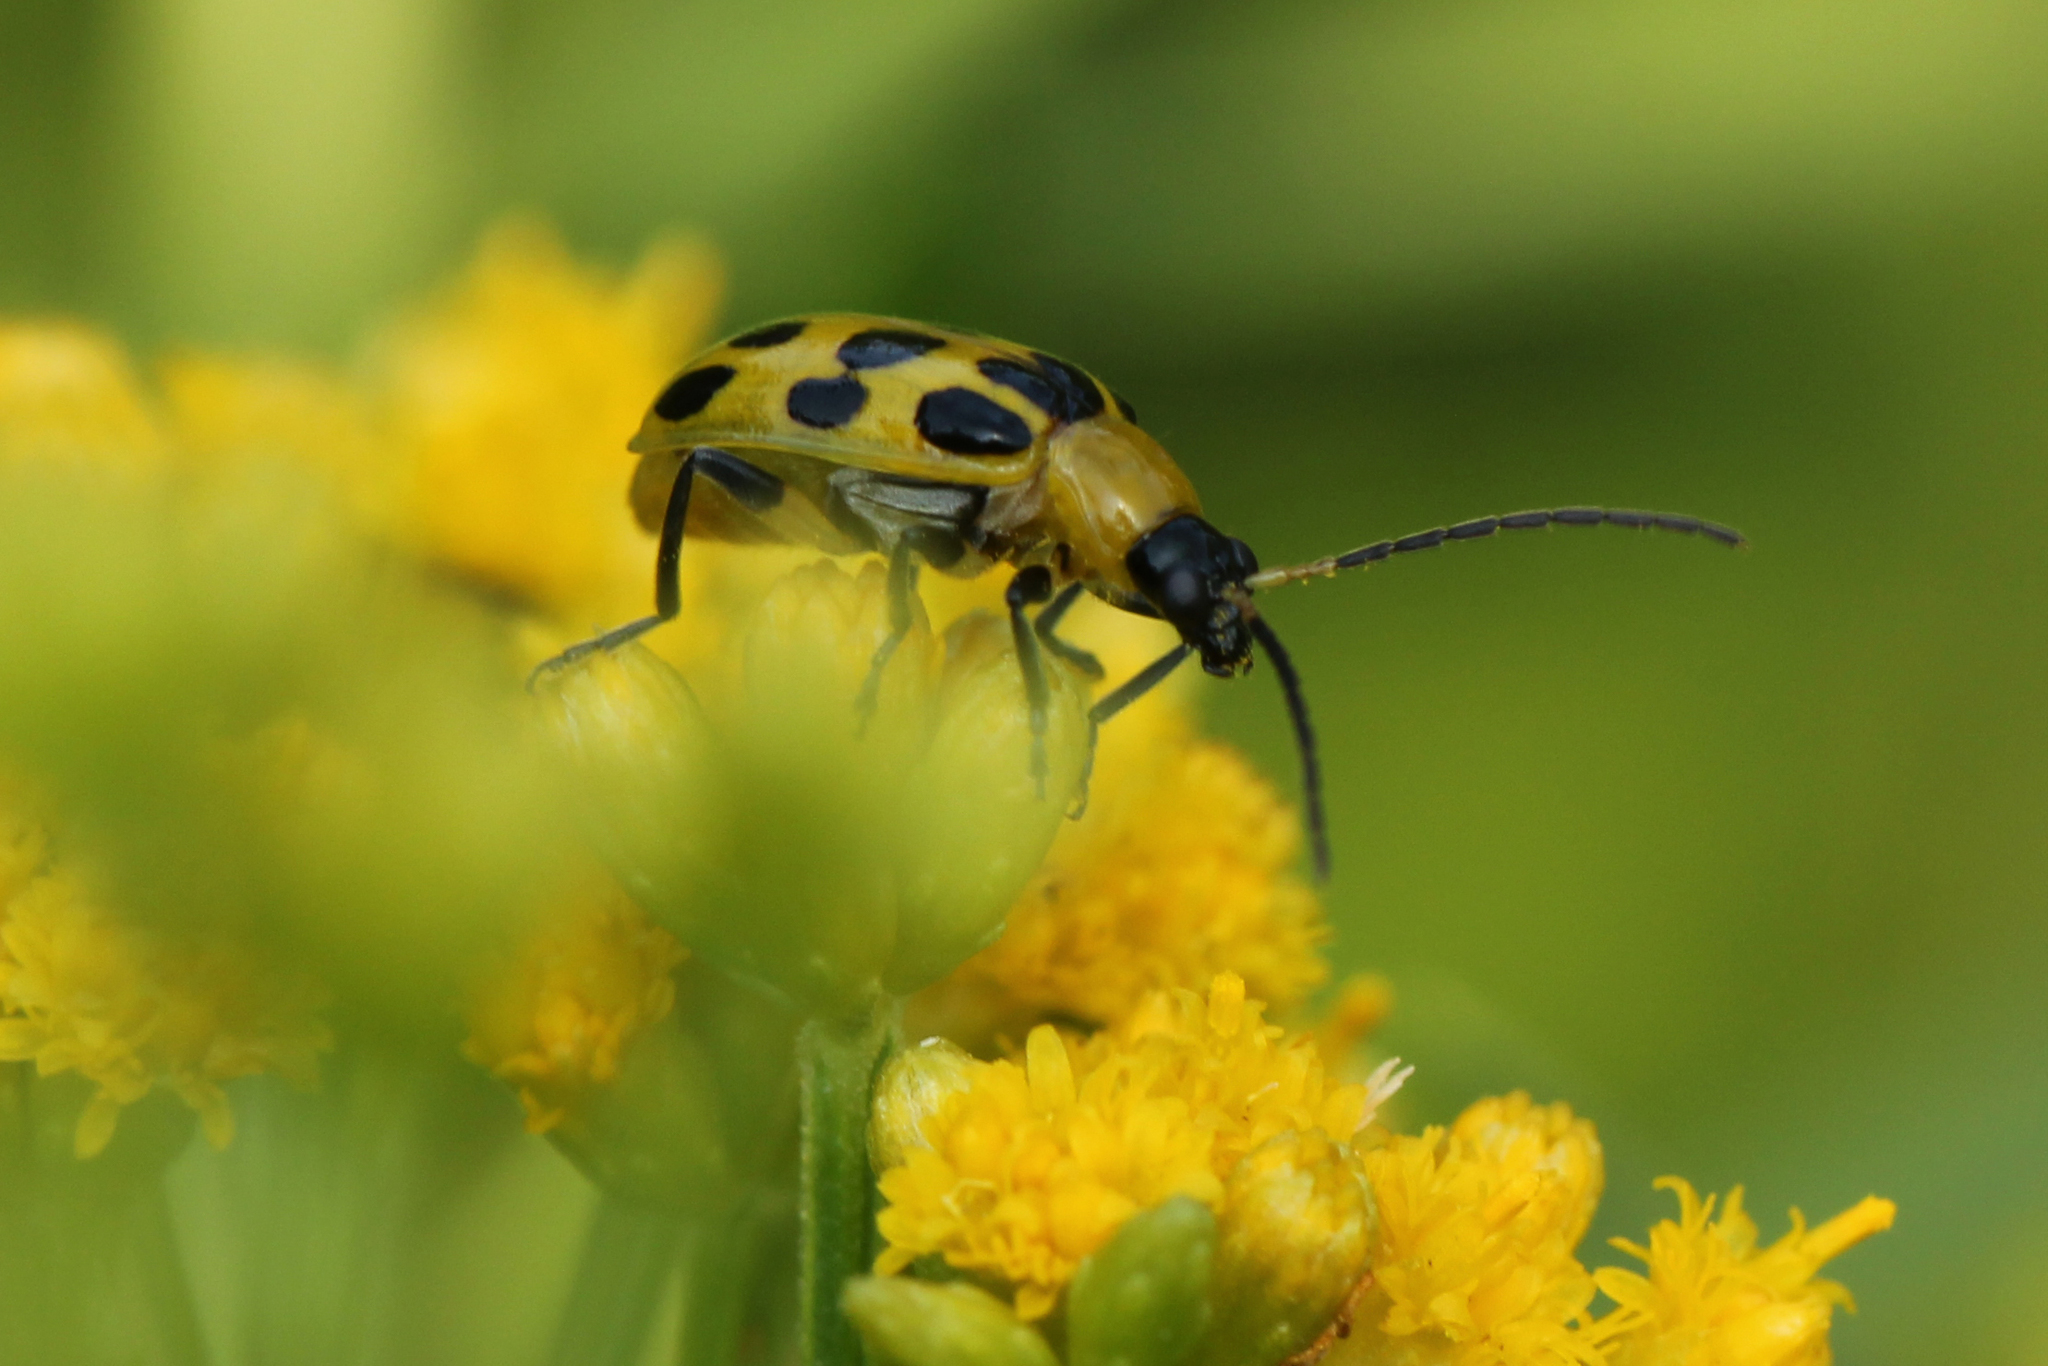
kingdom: Animalia
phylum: Arthropoda
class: Insecta
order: Coleoptera
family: Chrysomelidae
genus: Diabrotica
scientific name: Diabrotica undecimpunctata
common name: Spotted cucumber beetle
